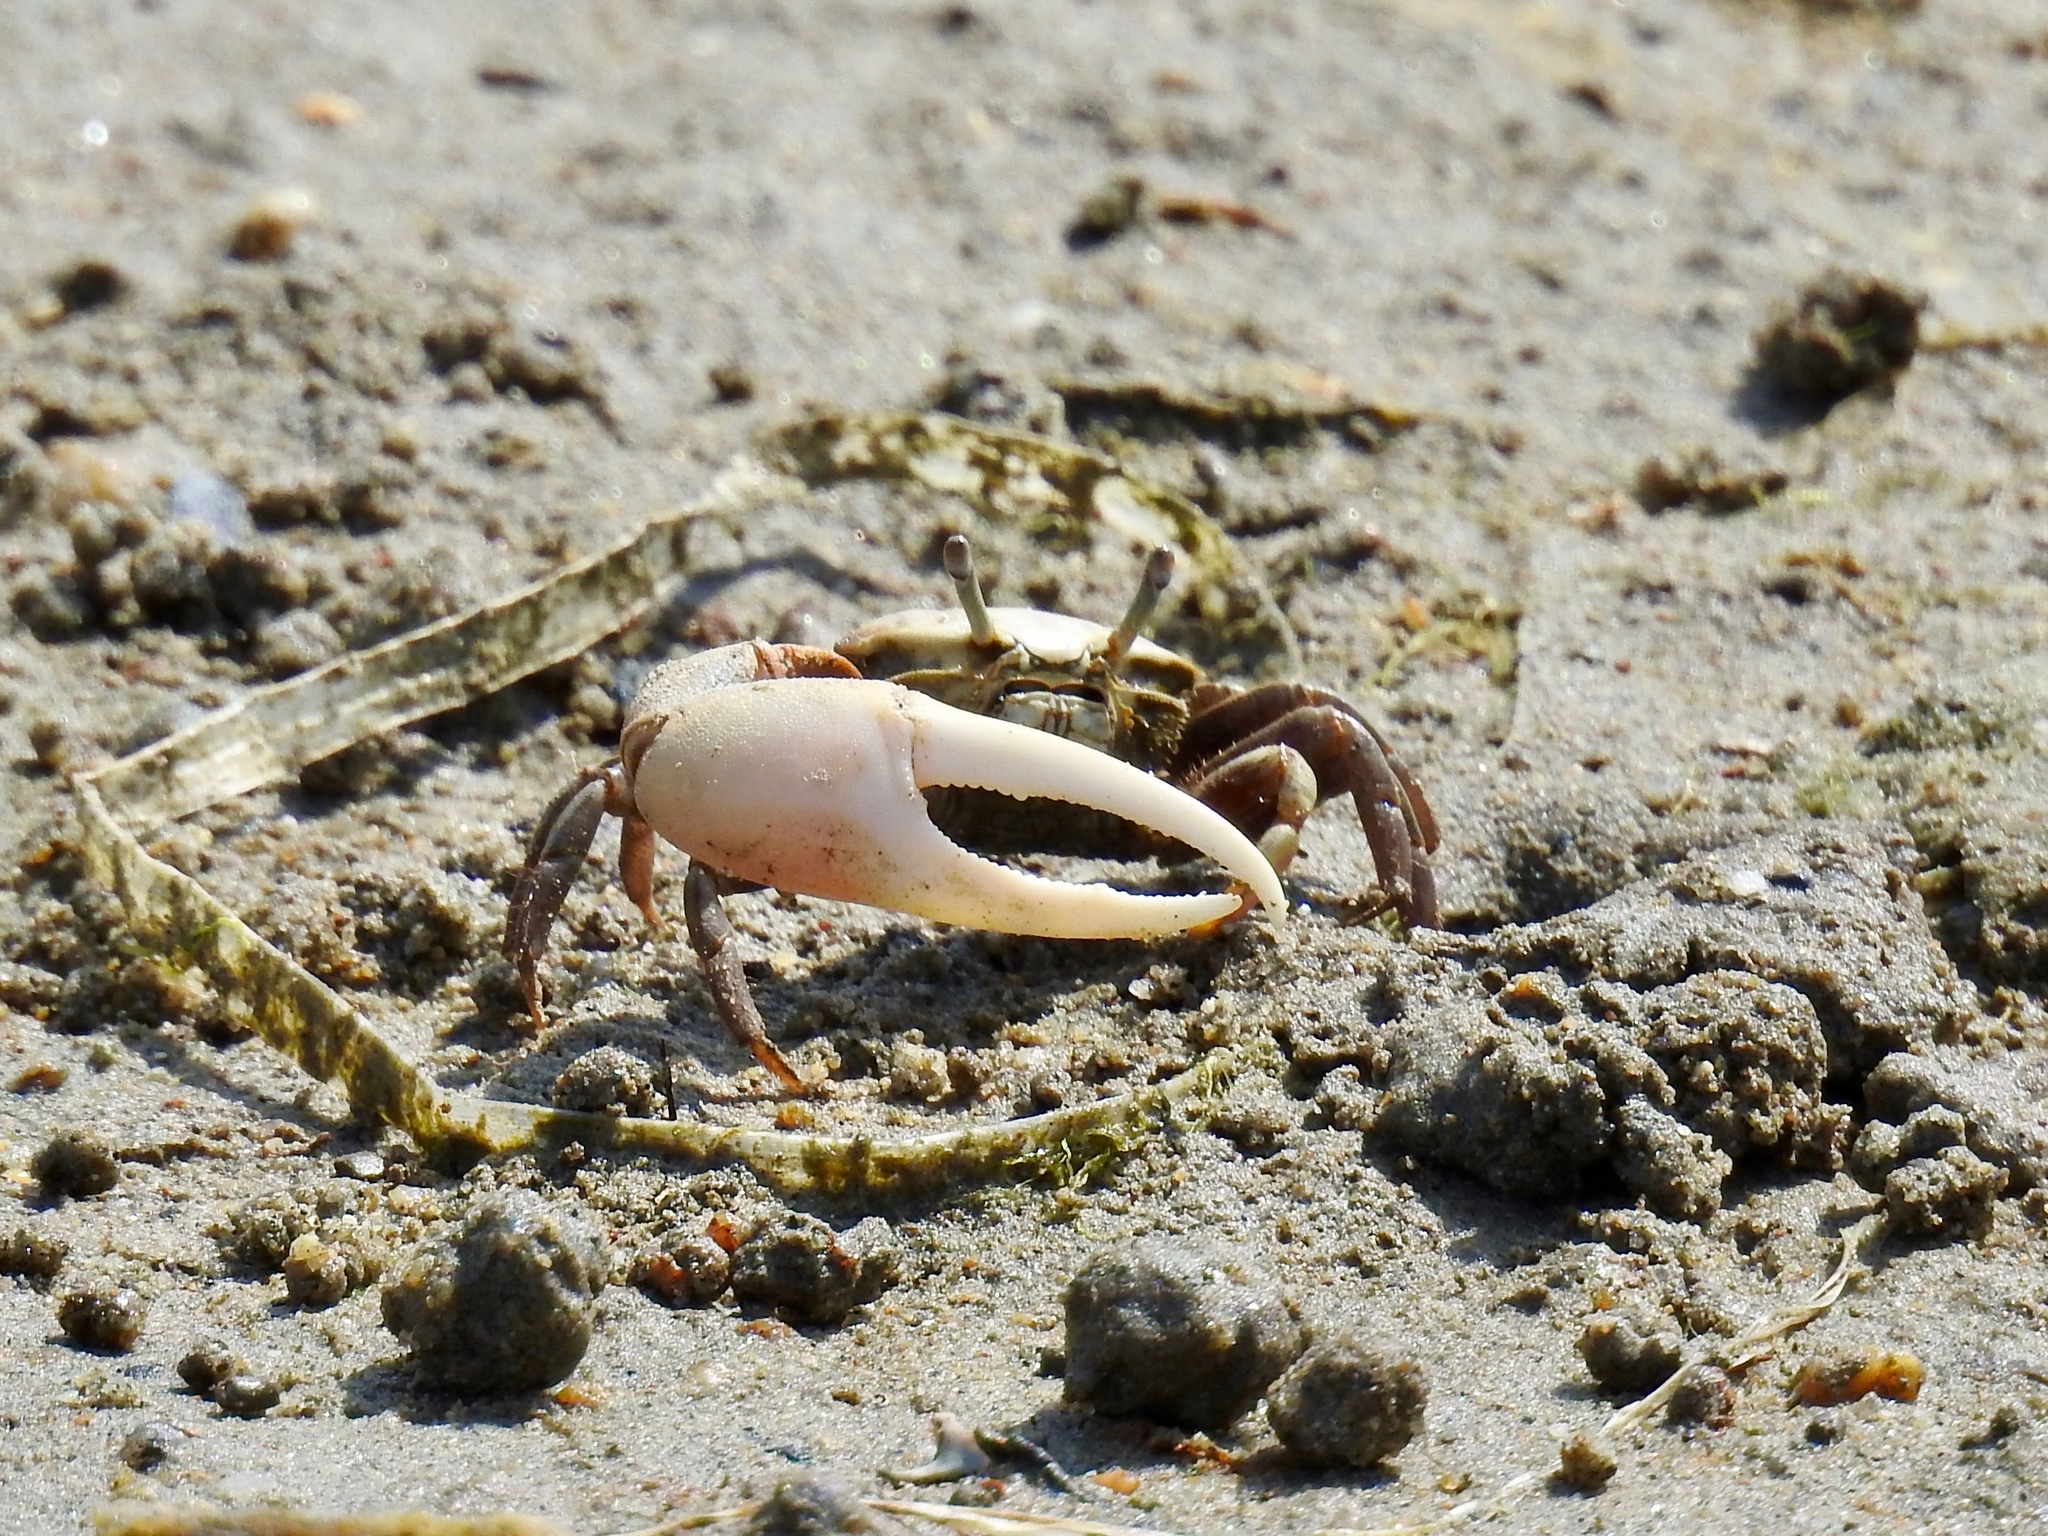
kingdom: Animalia
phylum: Arthropoda
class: Malacostraca
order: Decapoda
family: Ocypodidae
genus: Leptuca
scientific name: Leptuca crenulata
